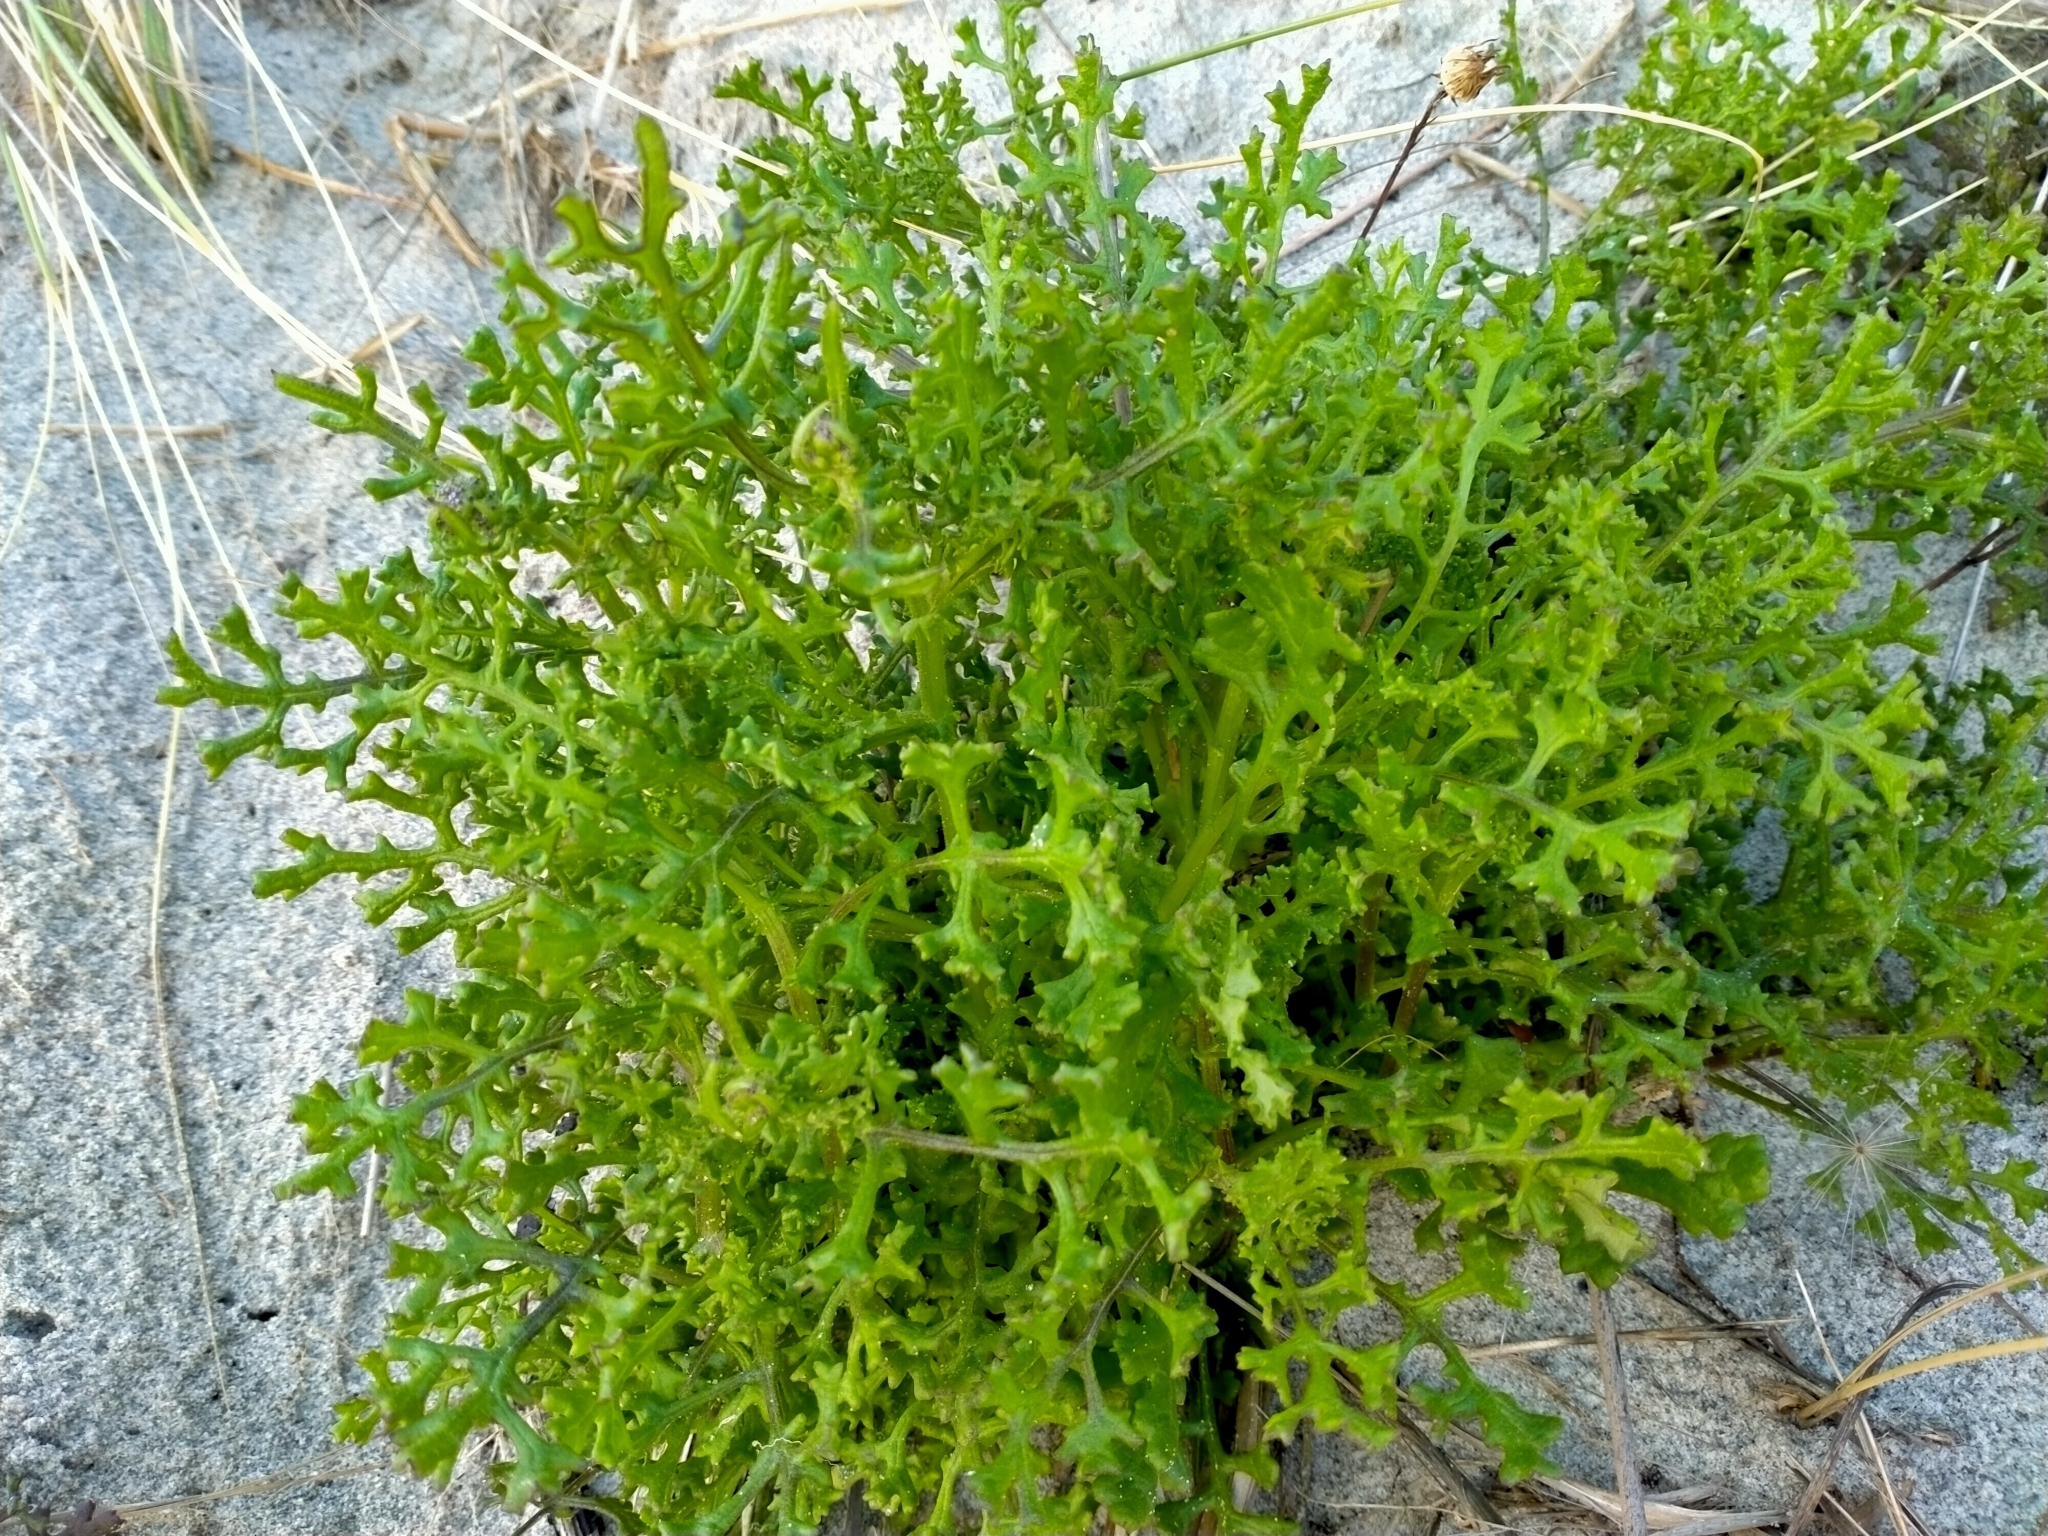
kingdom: Plantae
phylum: Tracheophyta
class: Magnoliopsida
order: Asterales
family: Asteraceae
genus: Senecio
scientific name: Senecio elegans
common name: Purple groundsel
